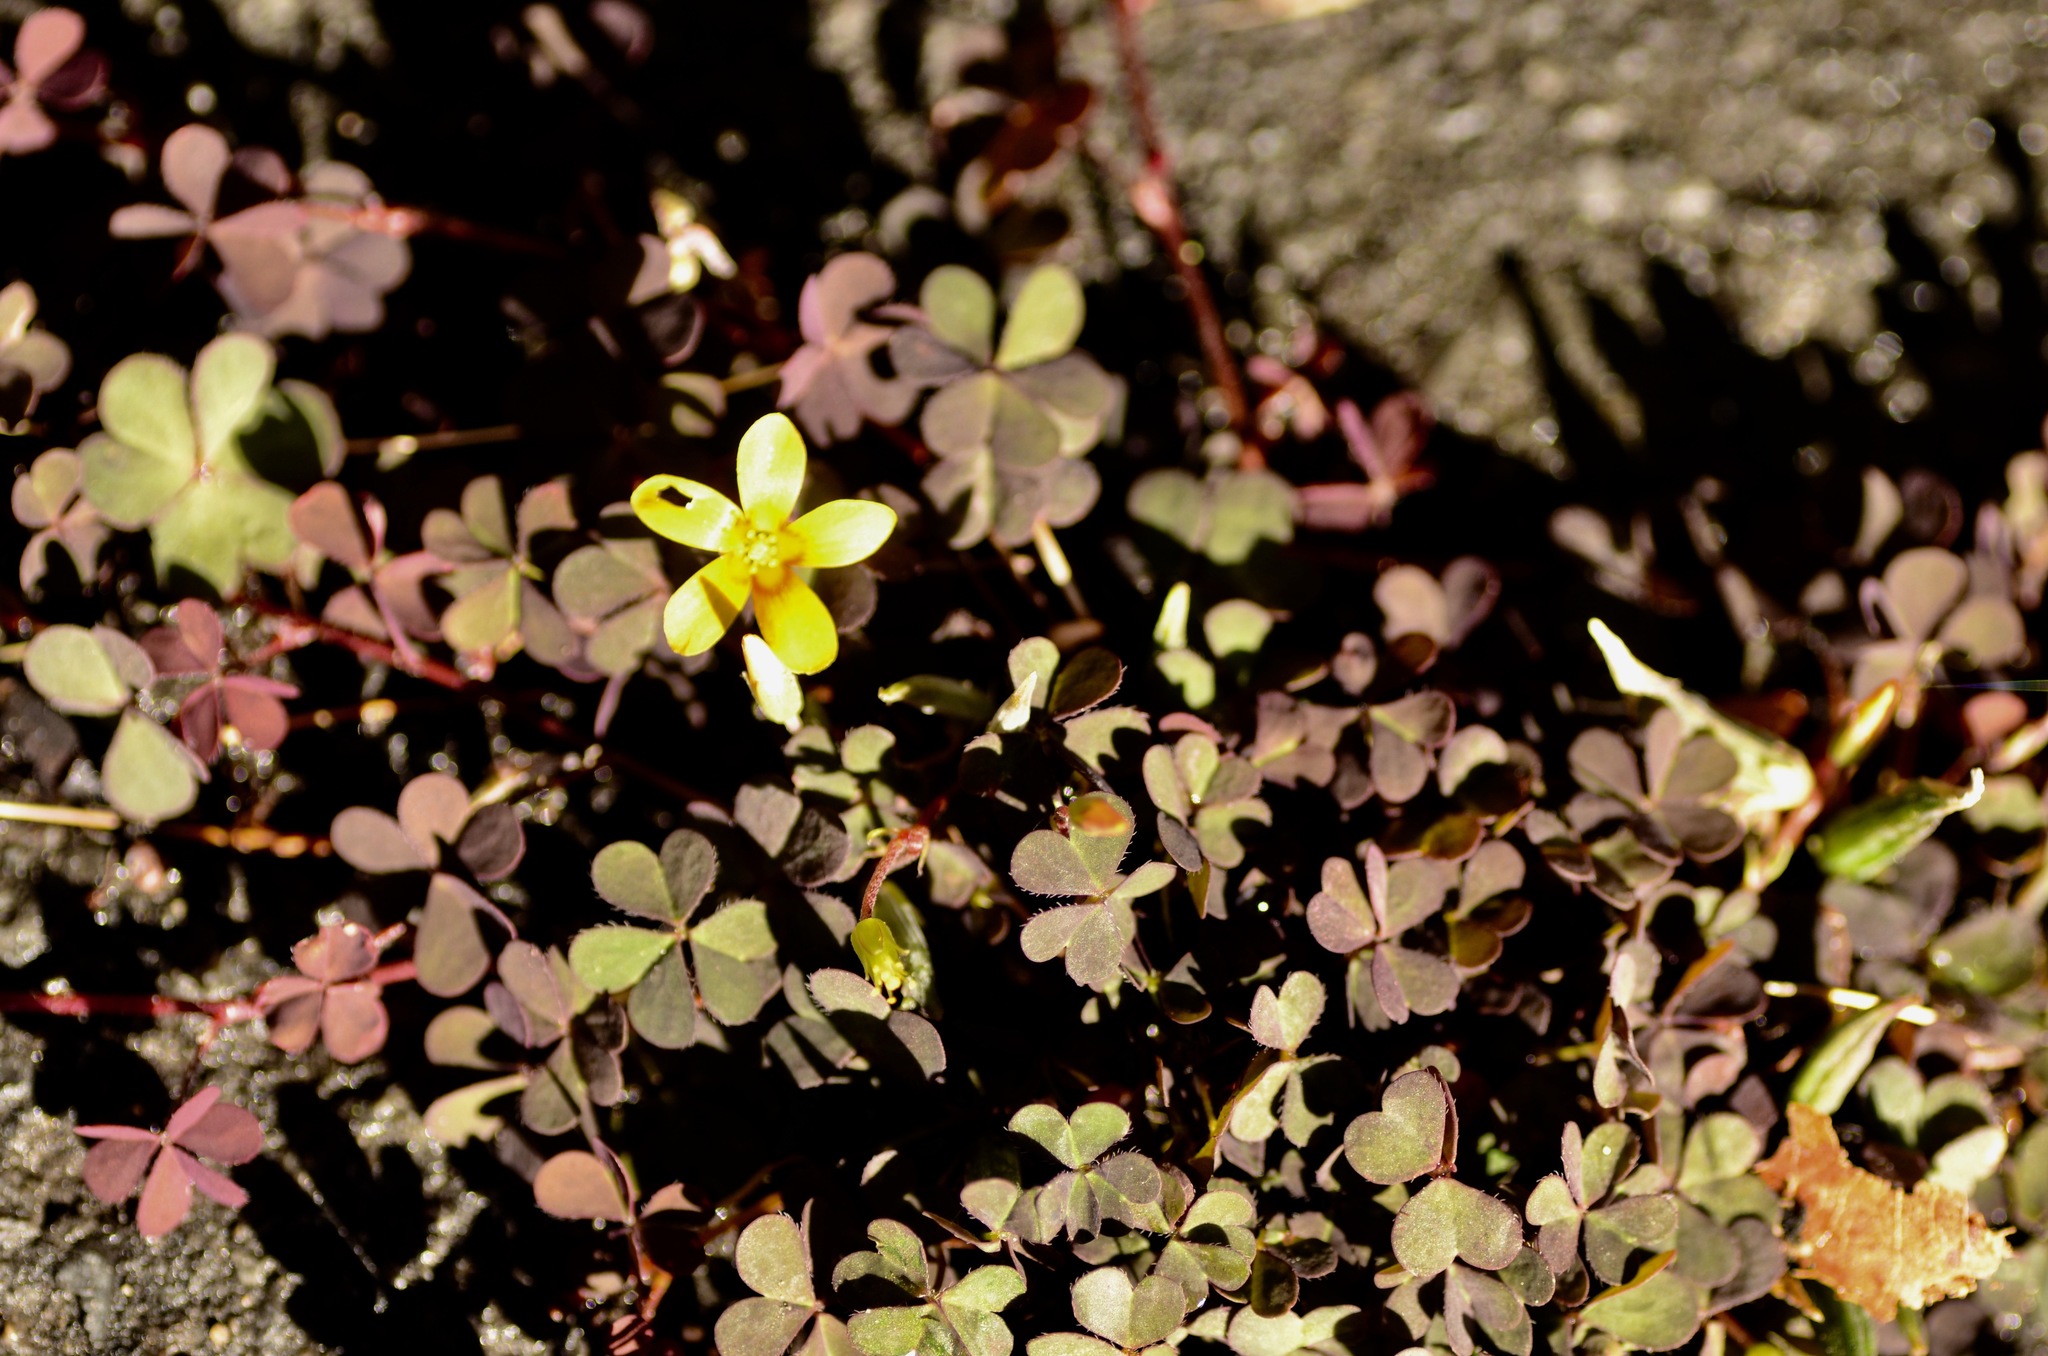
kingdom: Plantae
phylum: Tracheophyta
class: Magnoliopsida
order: Oxalidales
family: Oxalidaceae
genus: Oxalis
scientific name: Oxalis corniculata
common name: Procumbent yellow-sorrel
